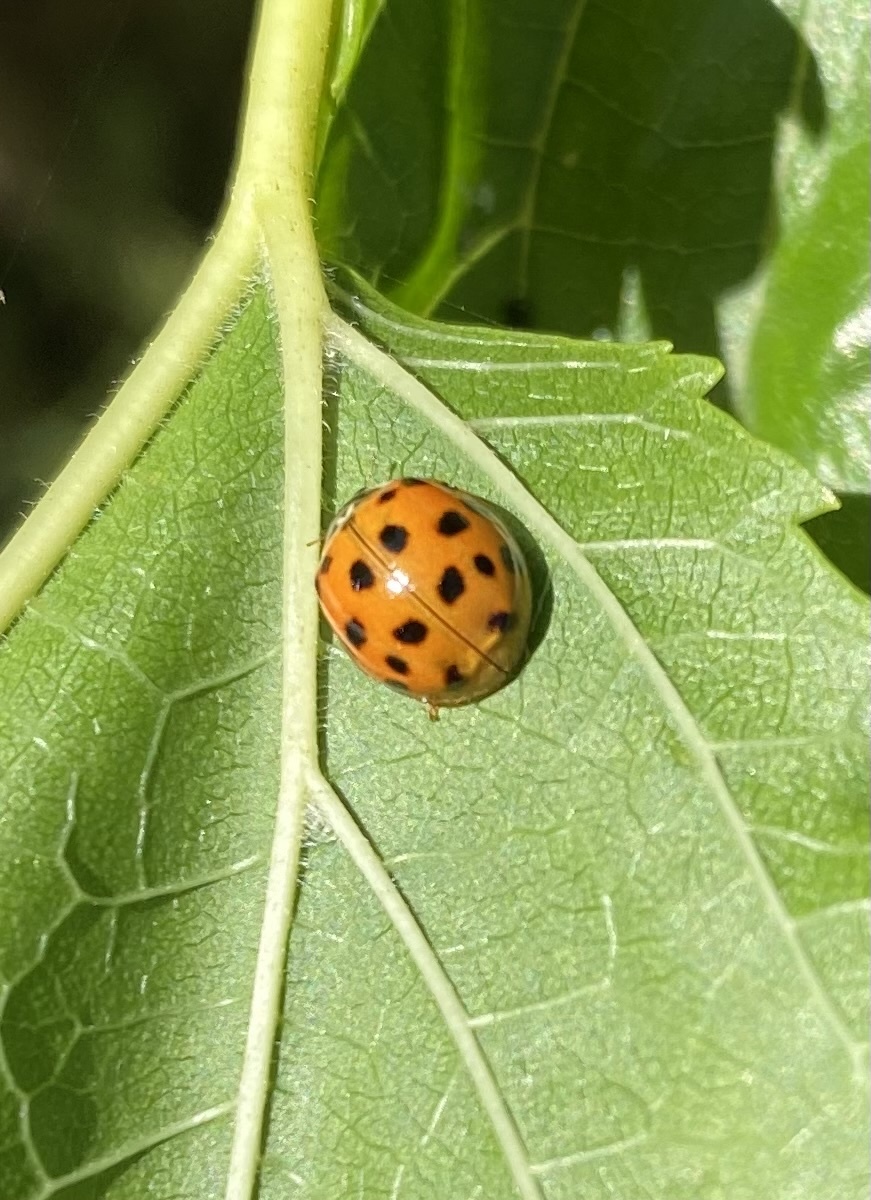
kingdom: Animalia
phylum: Arthropoda
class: Insecta
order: Coleoptera
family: Coccinellidae
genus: Harmonia
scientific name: Harmonia axyridis
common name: Harlequin ladybird
